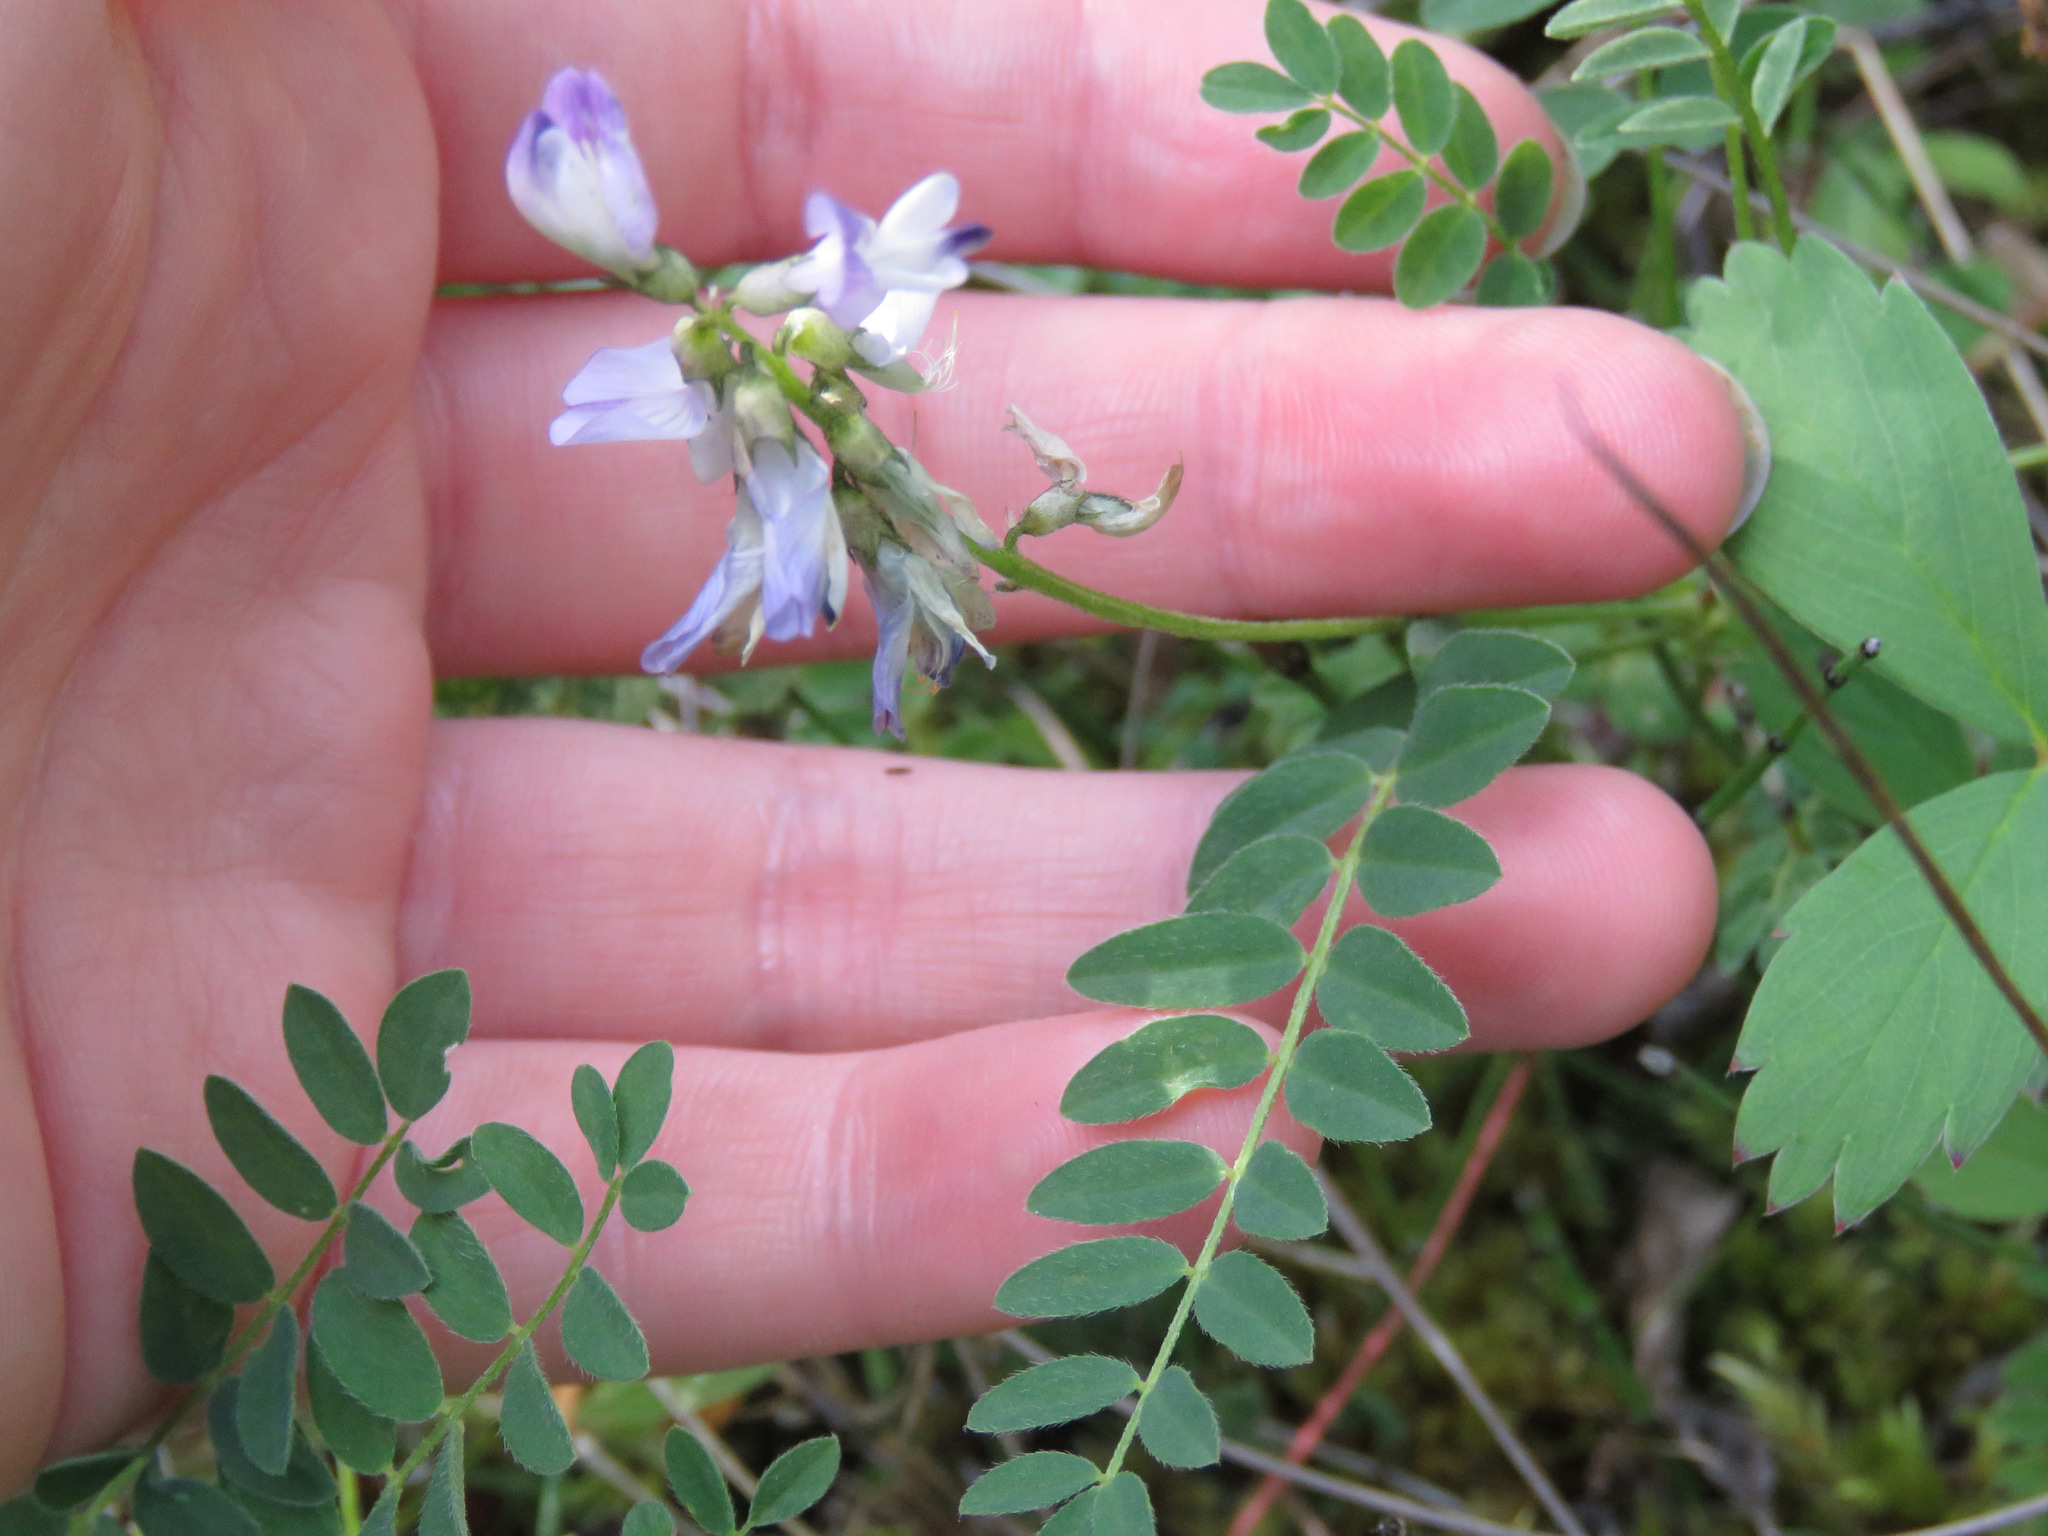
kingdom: Plantae
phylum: Tracheophyta
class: Magnoliopsida
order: Fabales
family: Fabaceae
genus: Astragalus
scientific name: Astragalus alpinus
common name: Alpine milk-vetch
